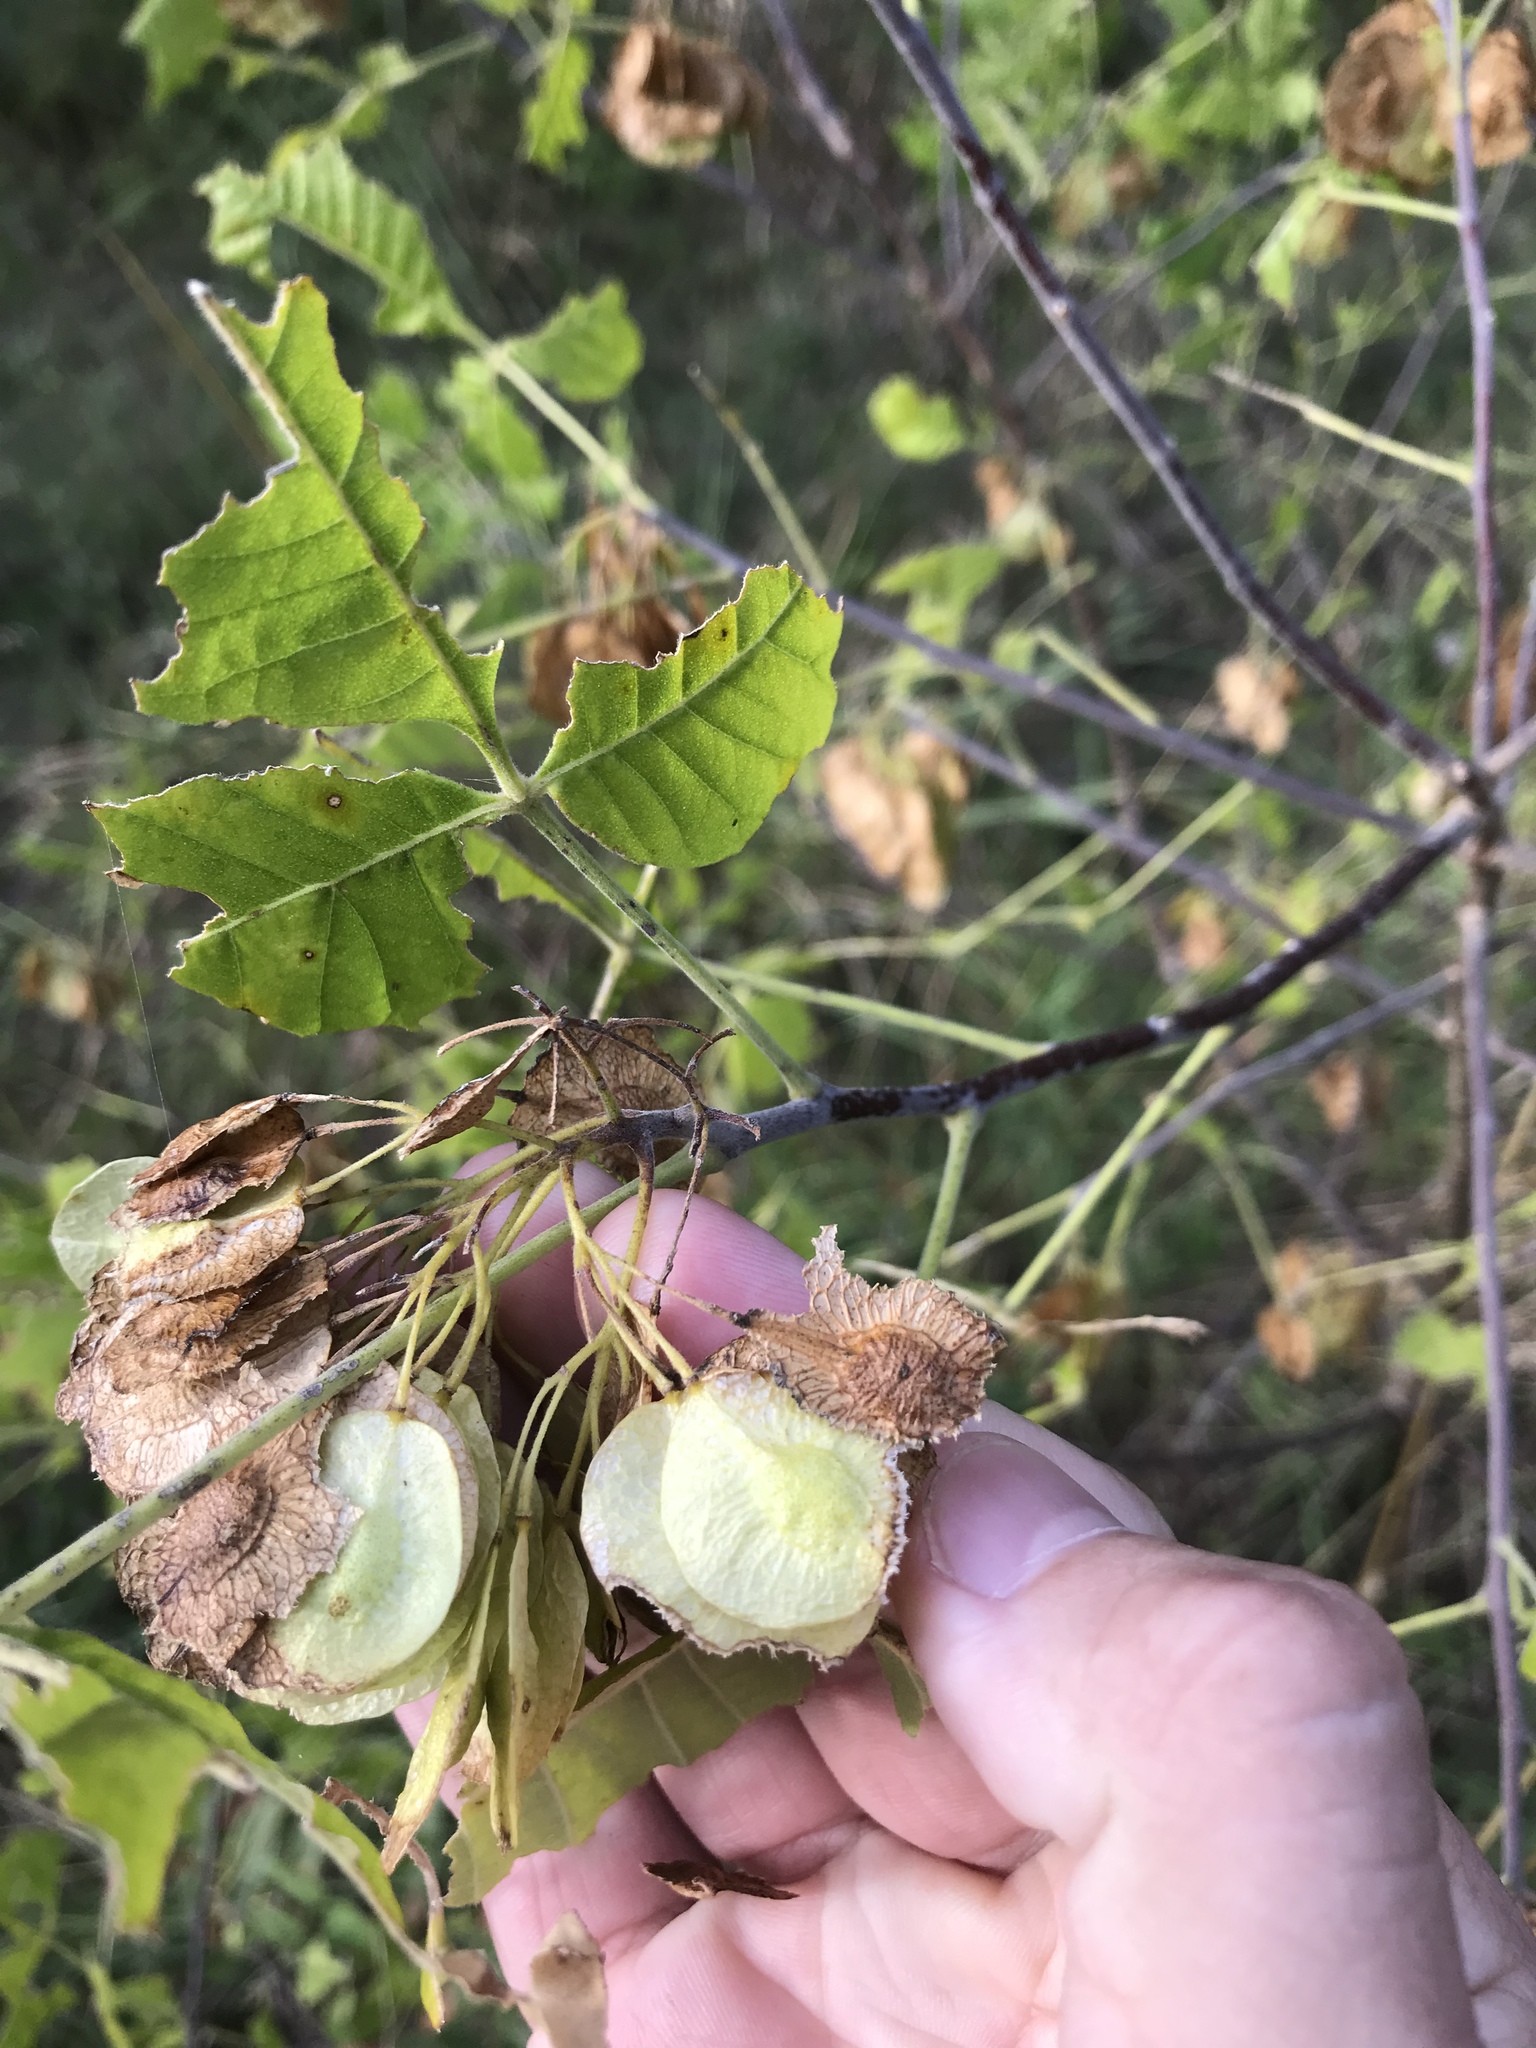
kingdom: Plantae
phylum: Tracheophyta
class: Magnoliopsida
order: Sapindales
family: Rutaceae
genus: Ptelea
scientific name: Ptelea trifoliata
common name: Common hop-tree
